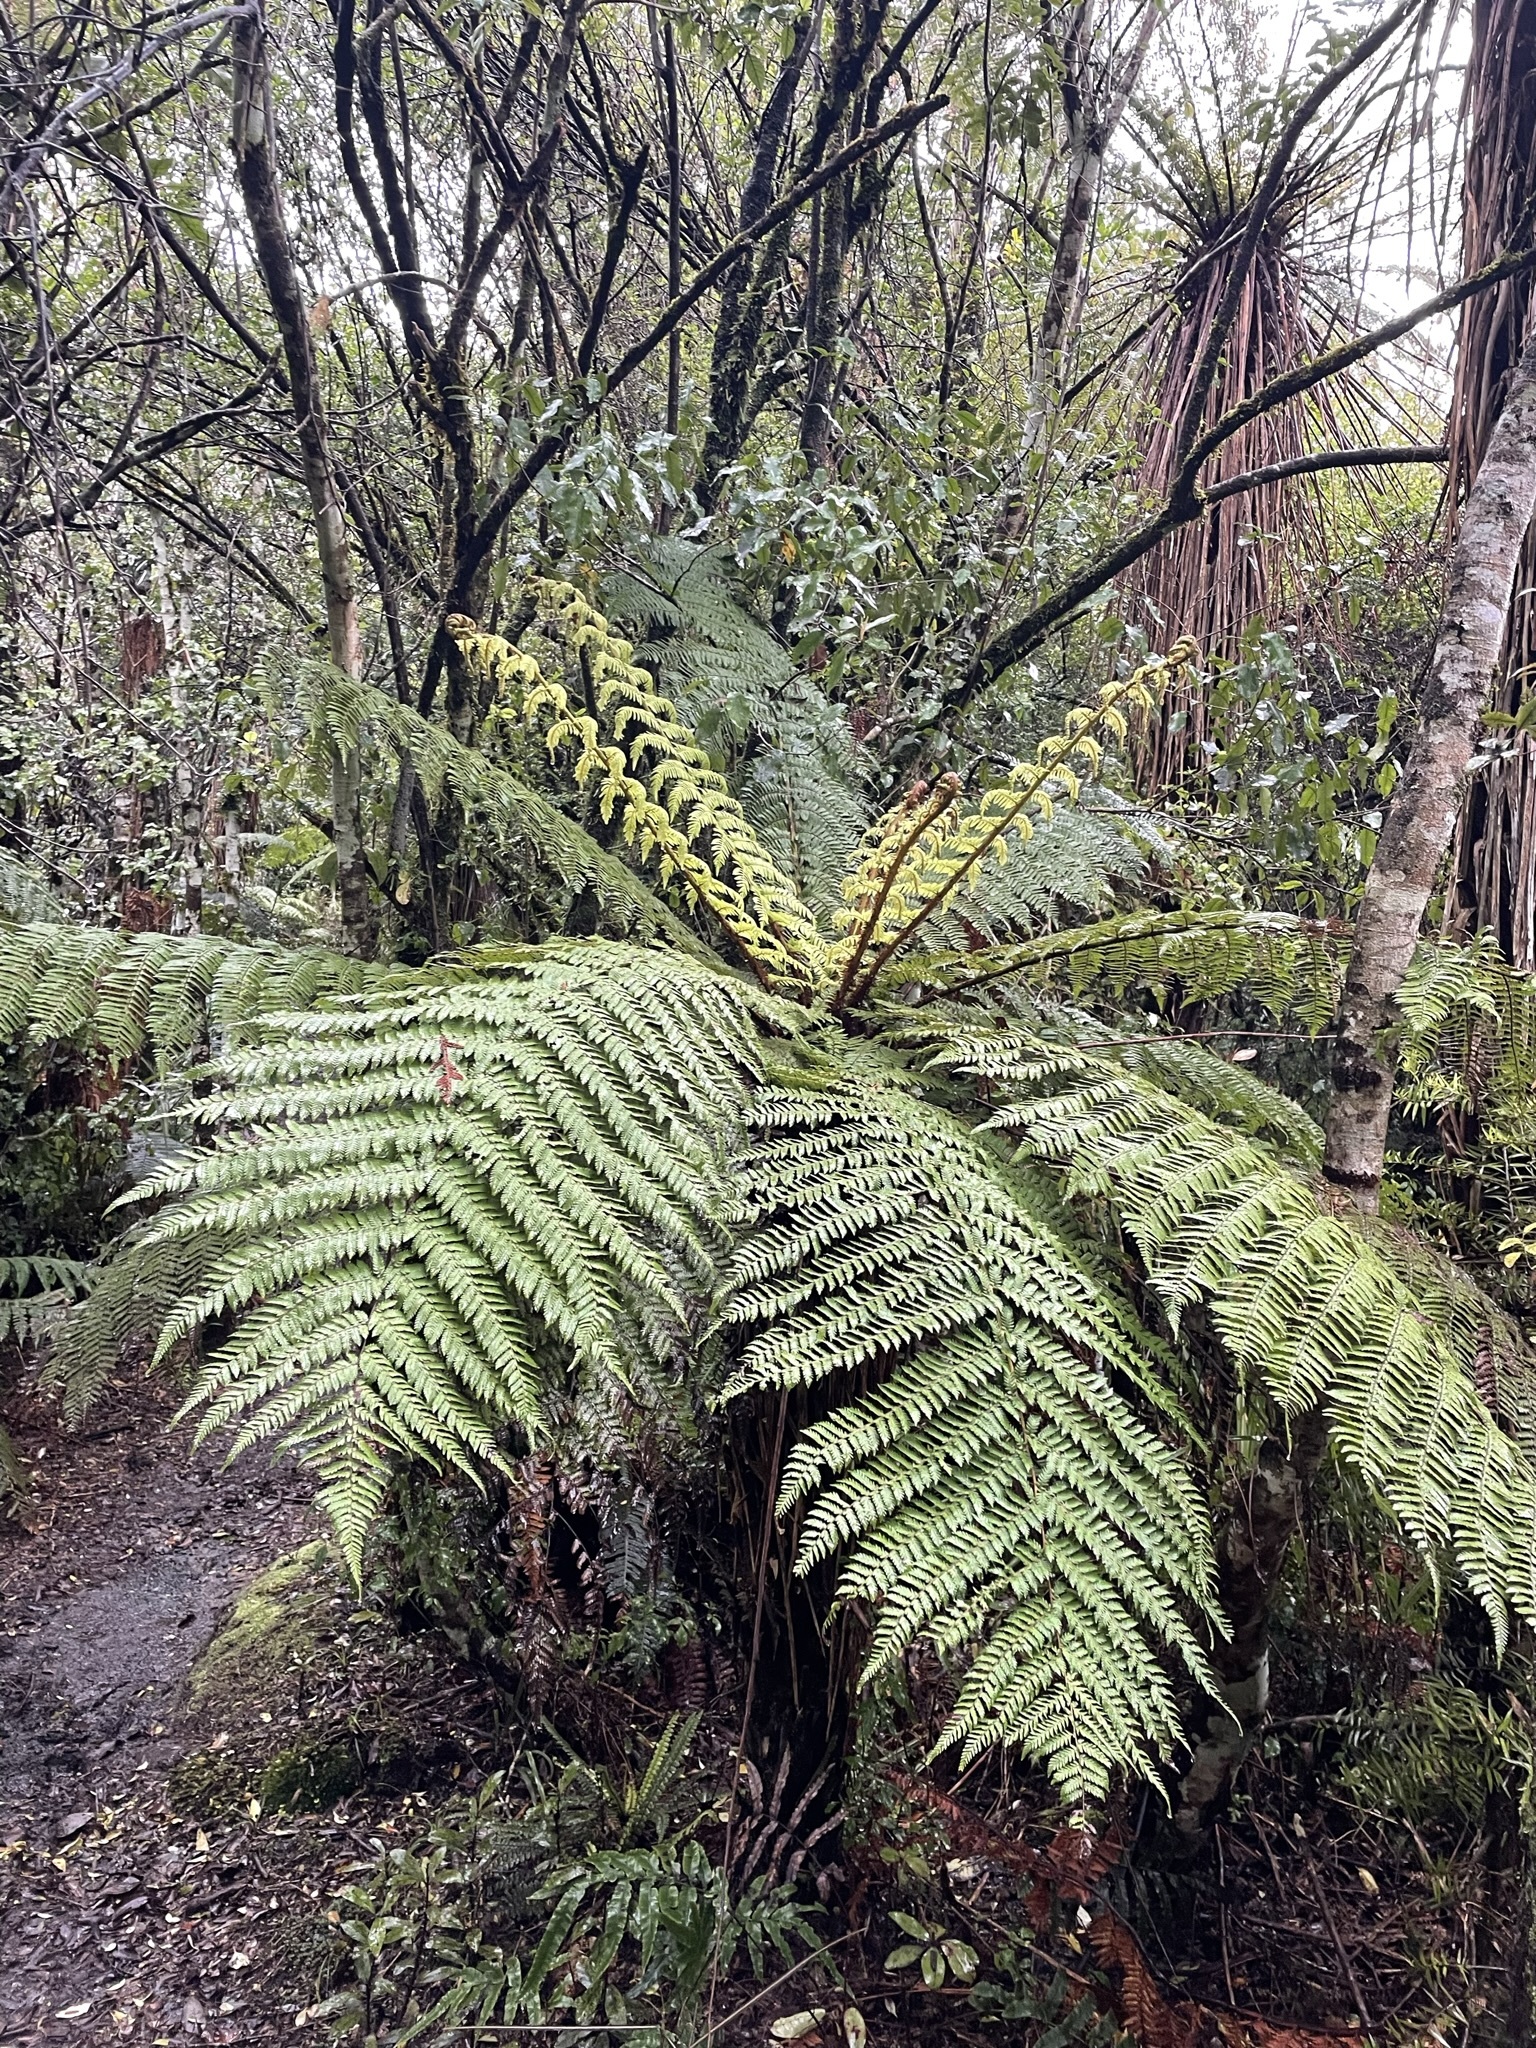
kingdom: Plantae
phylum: Tracheophyta
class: Polypodiopsida
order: Cyatheales
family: Cyatheaceae
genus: Alsophila
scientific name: Alsophila dealbata
